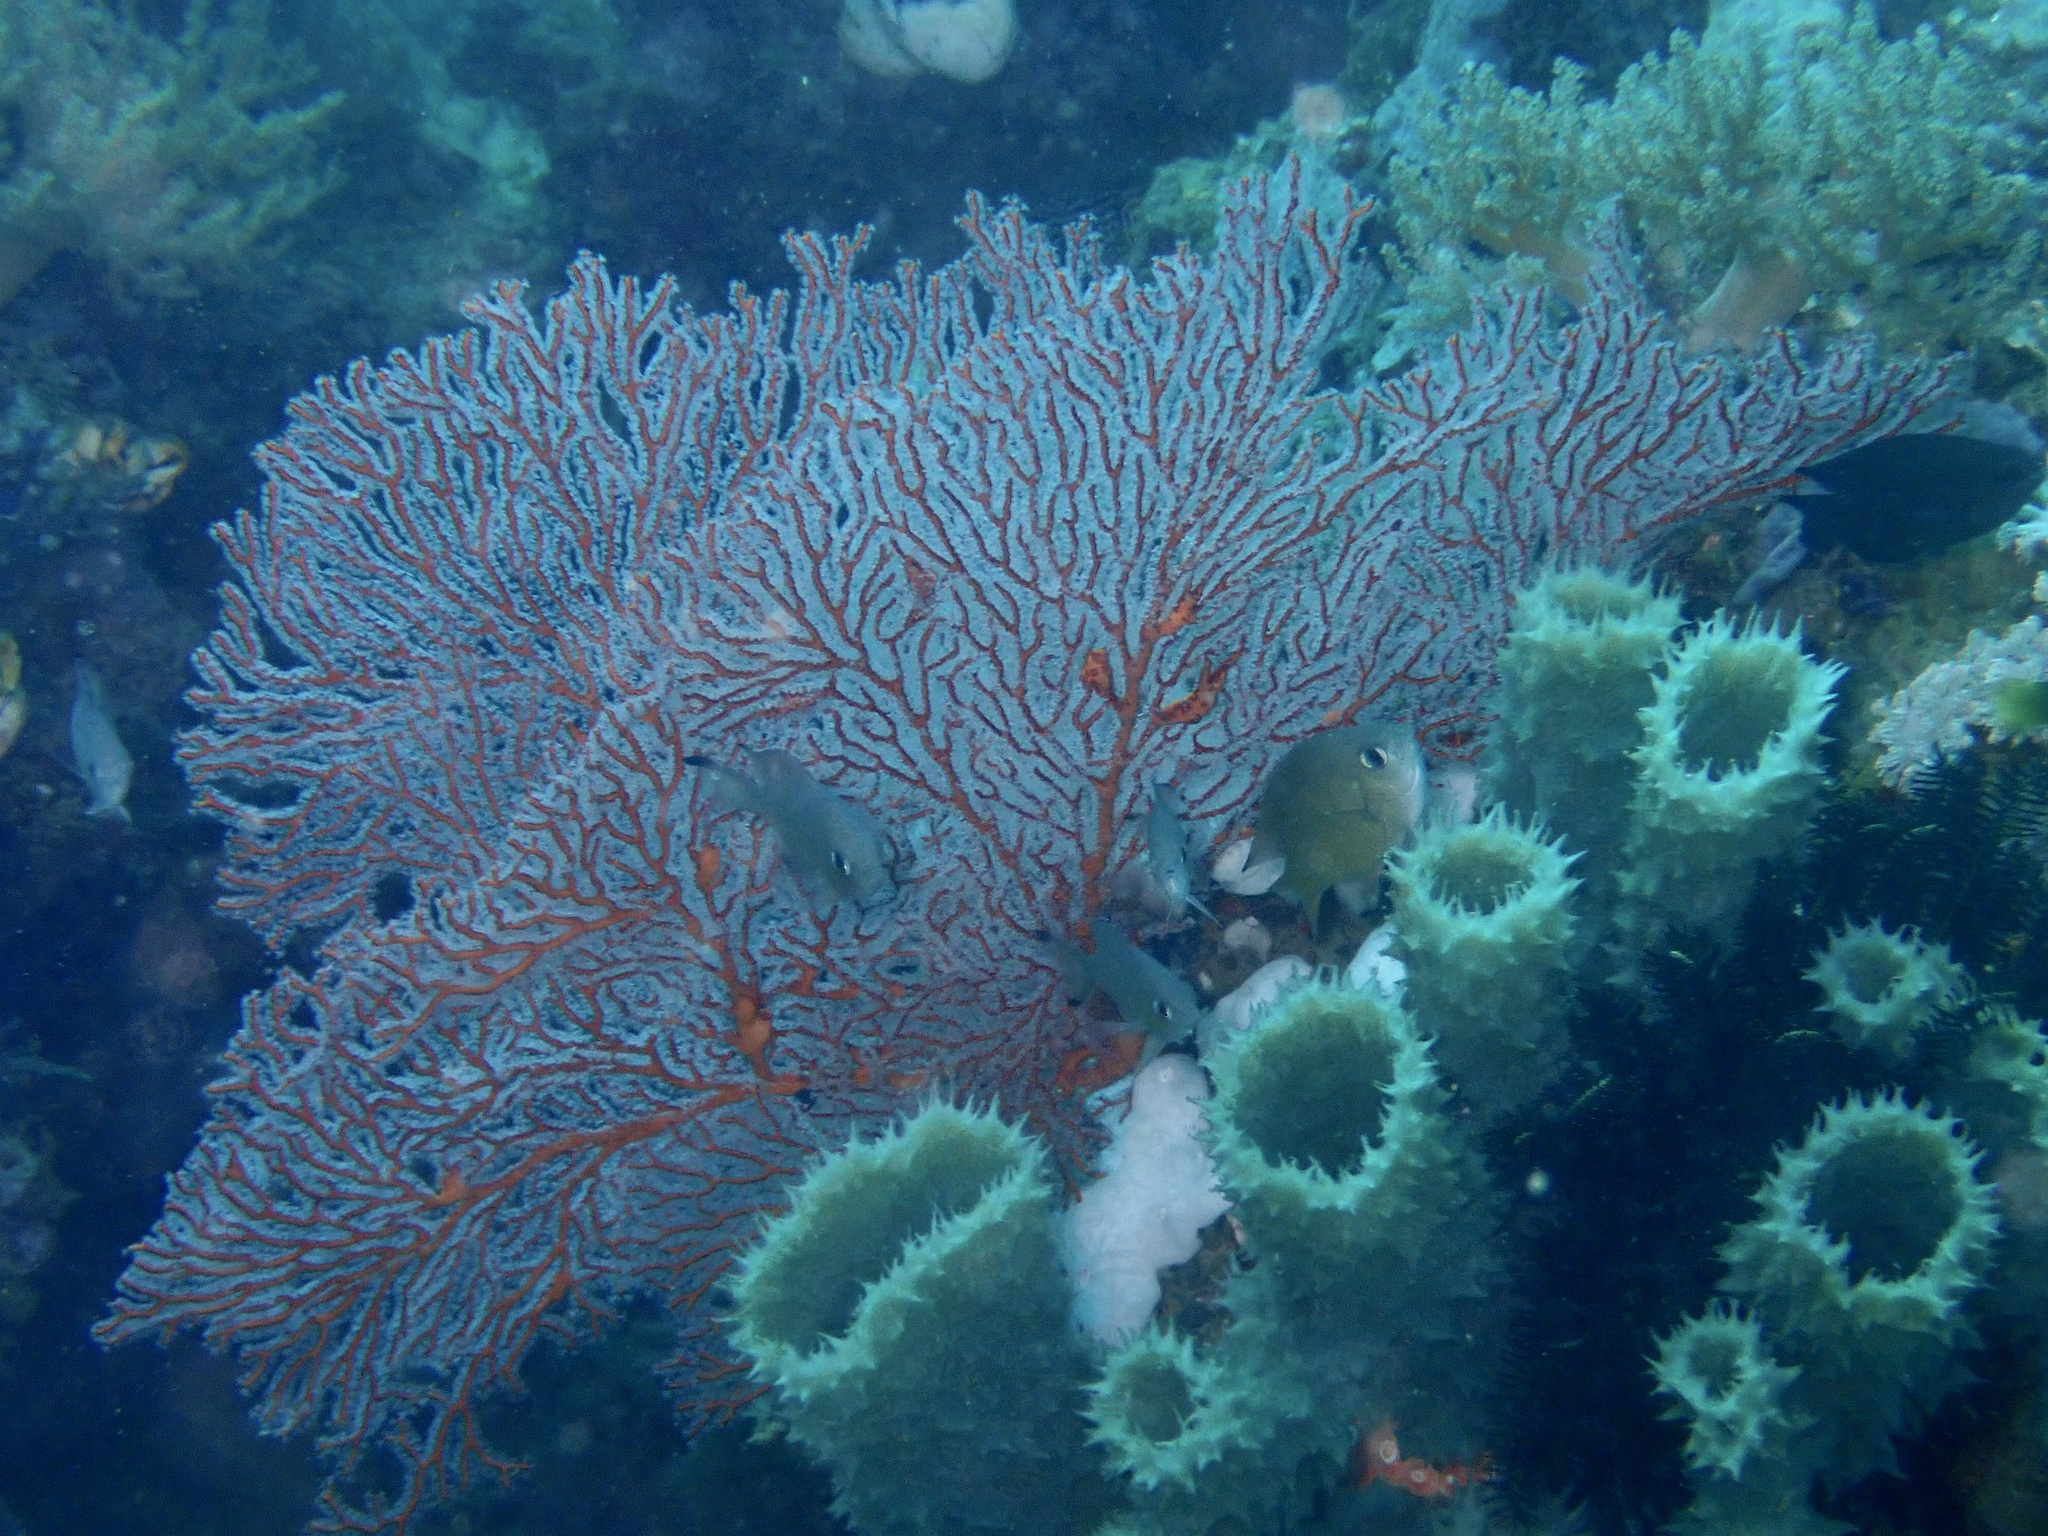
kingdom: Animalia
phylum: Cnidaria
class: Anthozoa
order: Malacalcyonacea
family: Melithaeidae
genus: Melithaea
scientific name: Melithaea ochracea
